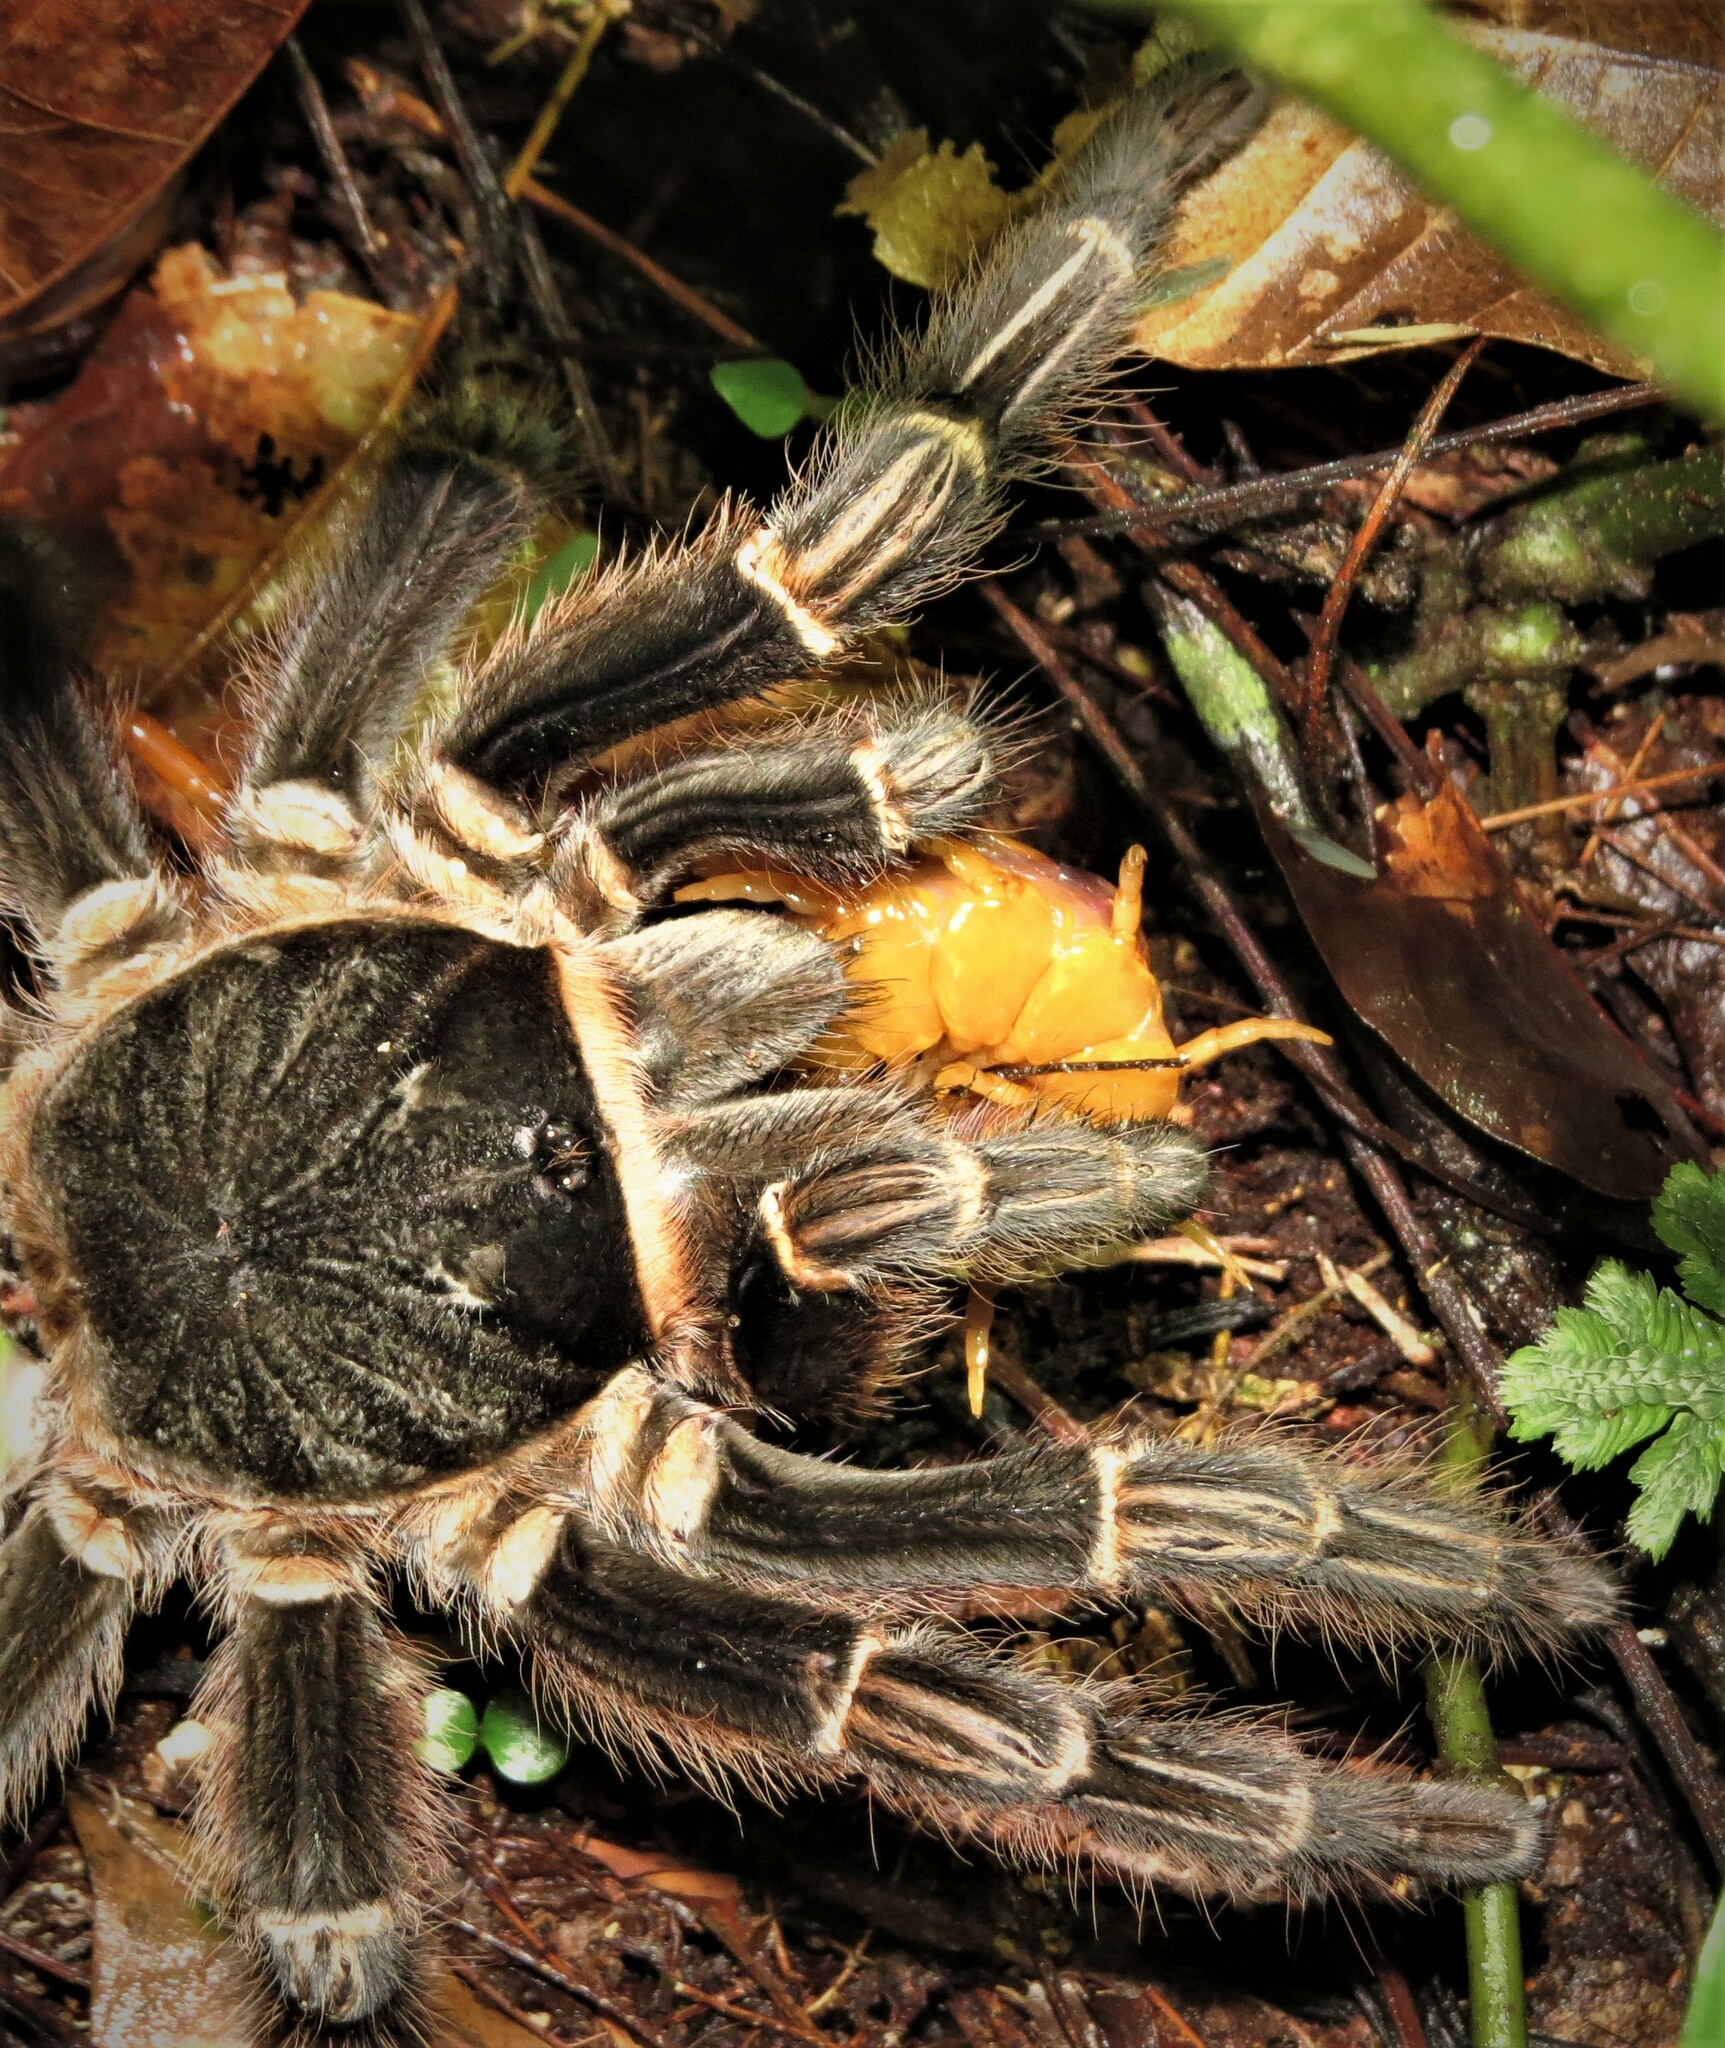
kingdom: Animalia
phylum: Arthropoda
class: Arachnida
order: Araneae
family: Theraphosidae
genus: Acanthoscurria
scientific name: Acanthoscurria juruenicola
